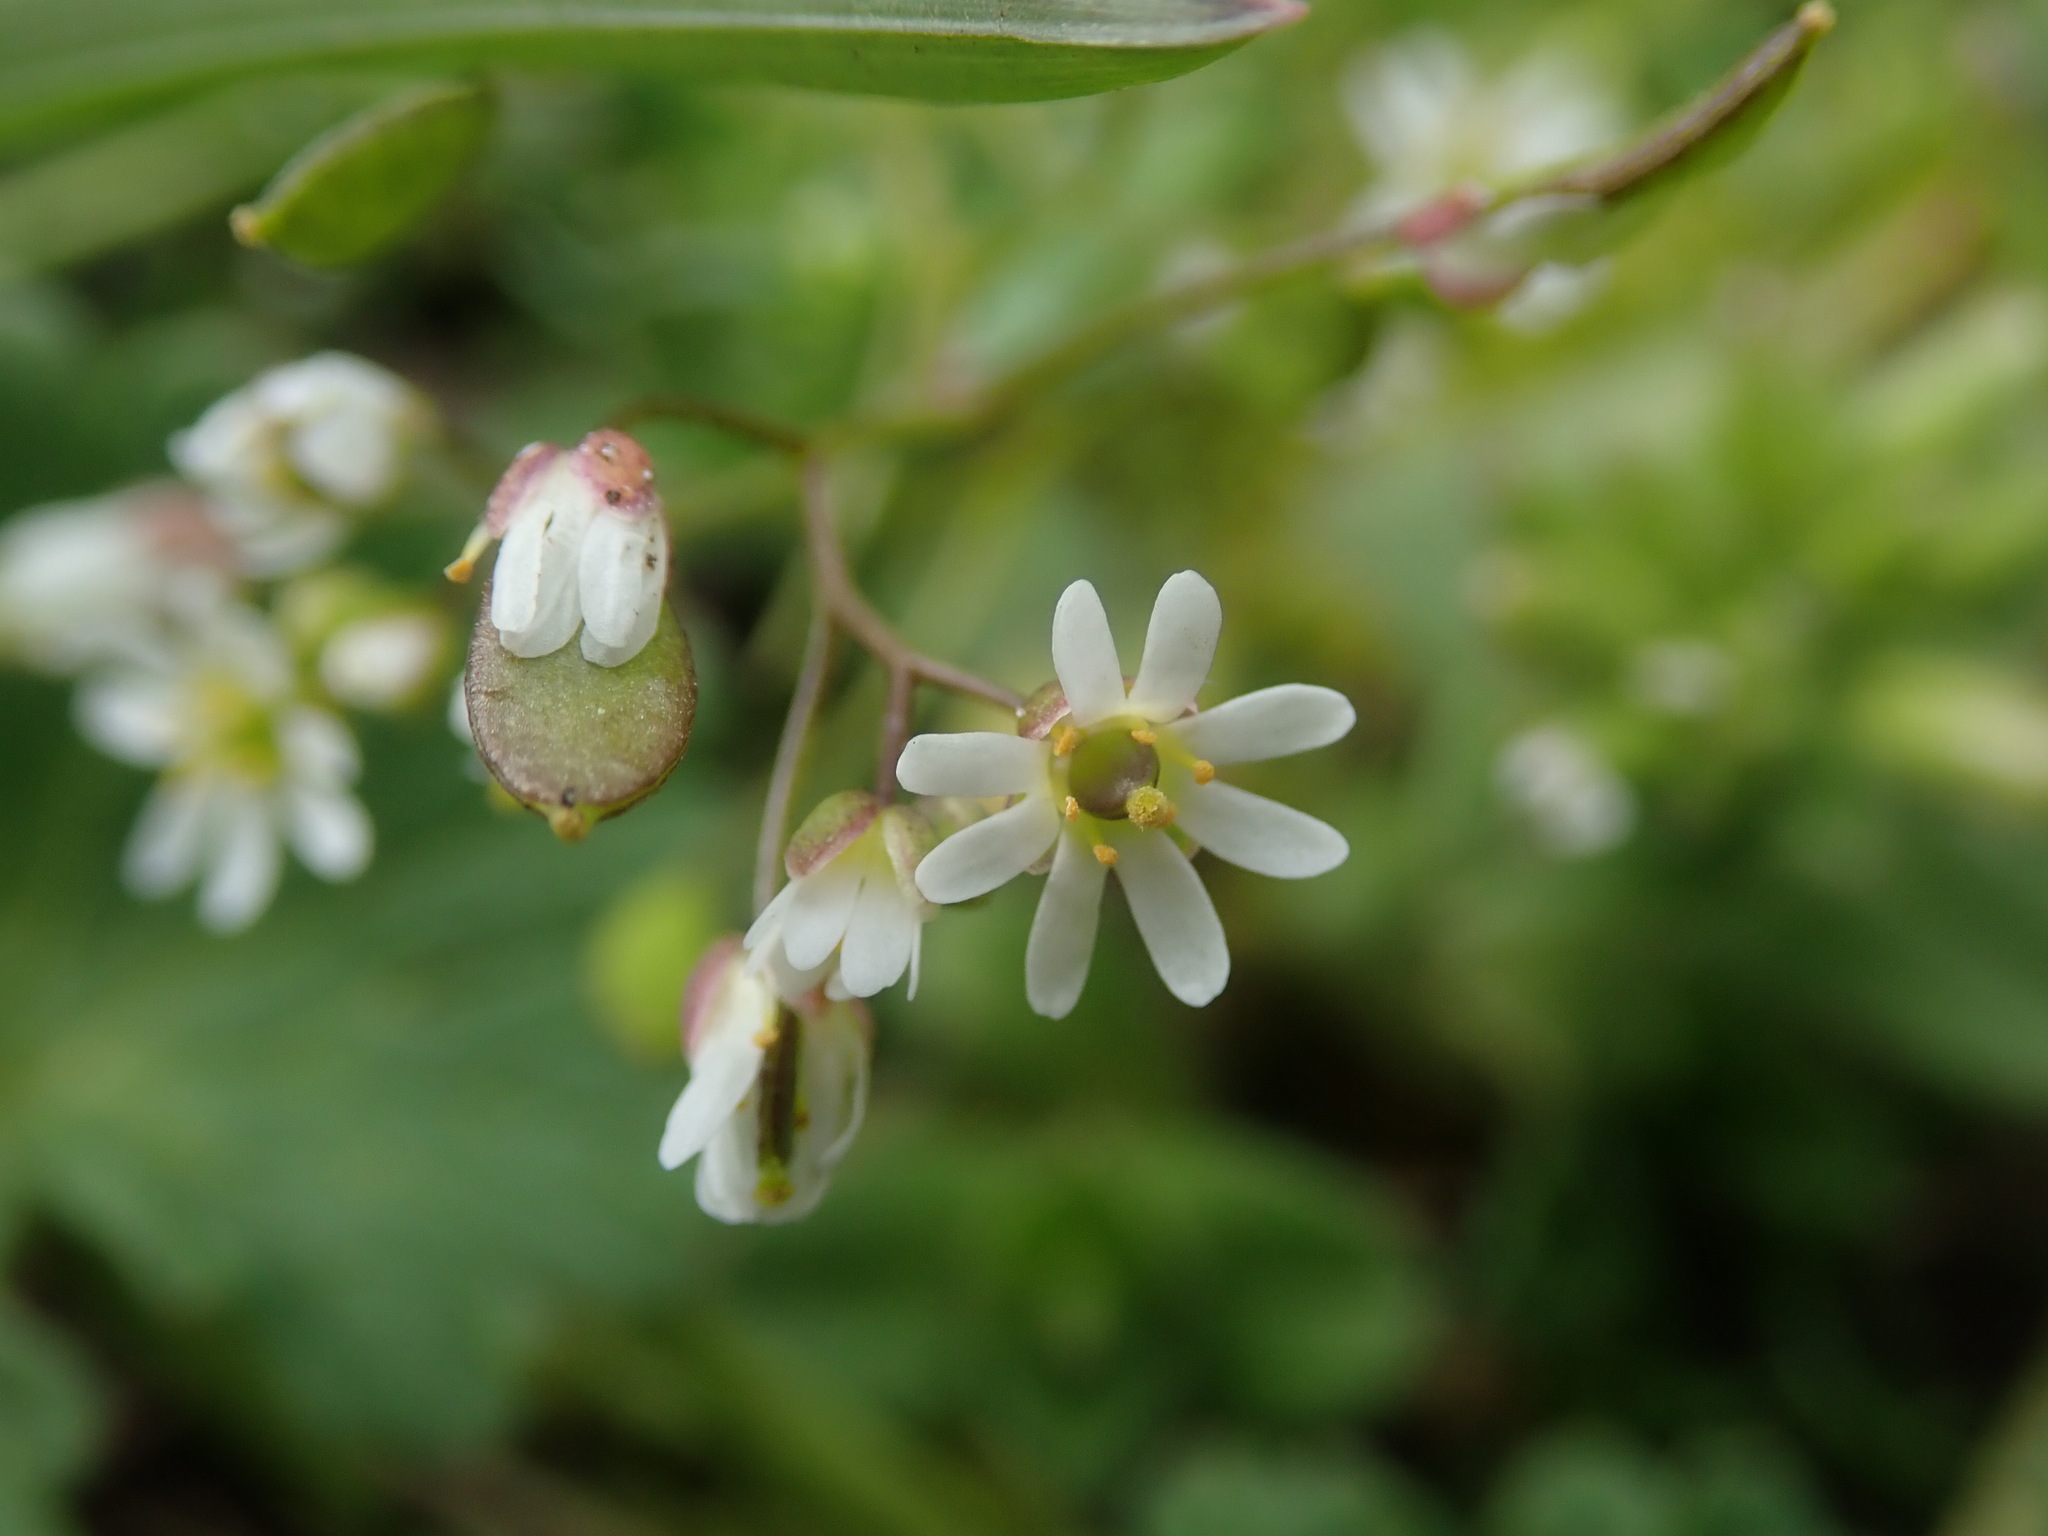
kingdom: Plantae
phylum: Tracheophyta
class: Magnoliopsida
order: Brassicales
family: Brassicaceae
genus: Draba
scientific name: Draba verna
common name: Spring draba
